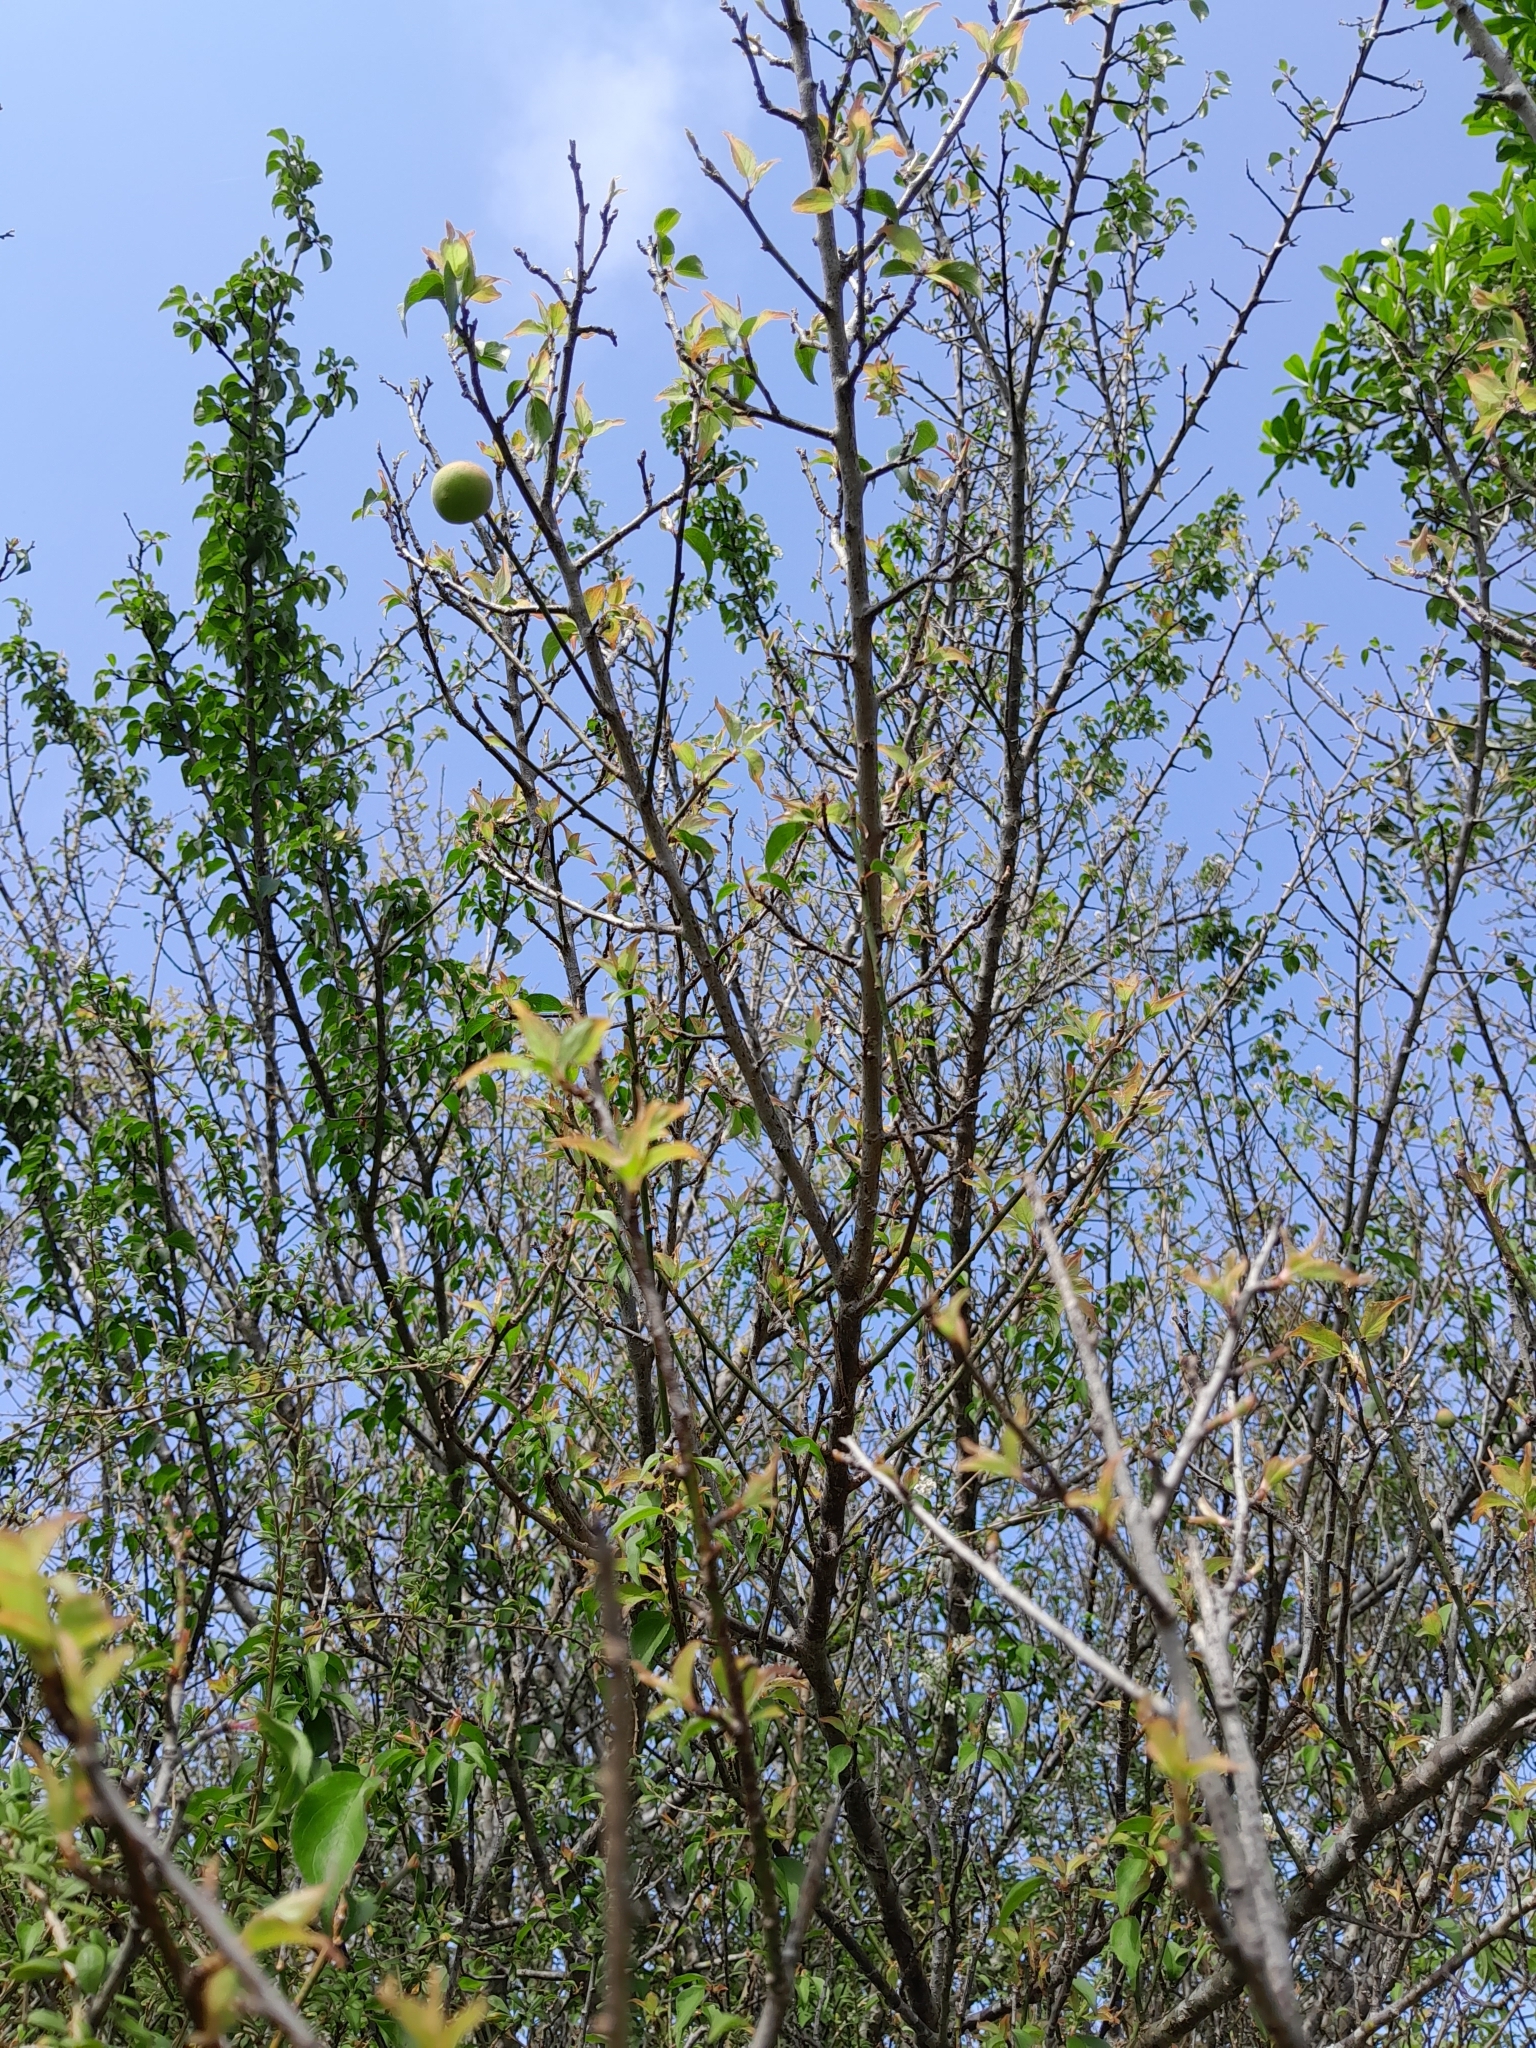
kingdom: Plantae
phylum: Tracheophyta
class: Magnoliopsida
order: Rosales
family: Rosaceae
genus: Prunus
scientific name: Prunus mume
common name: Japanese apricot
